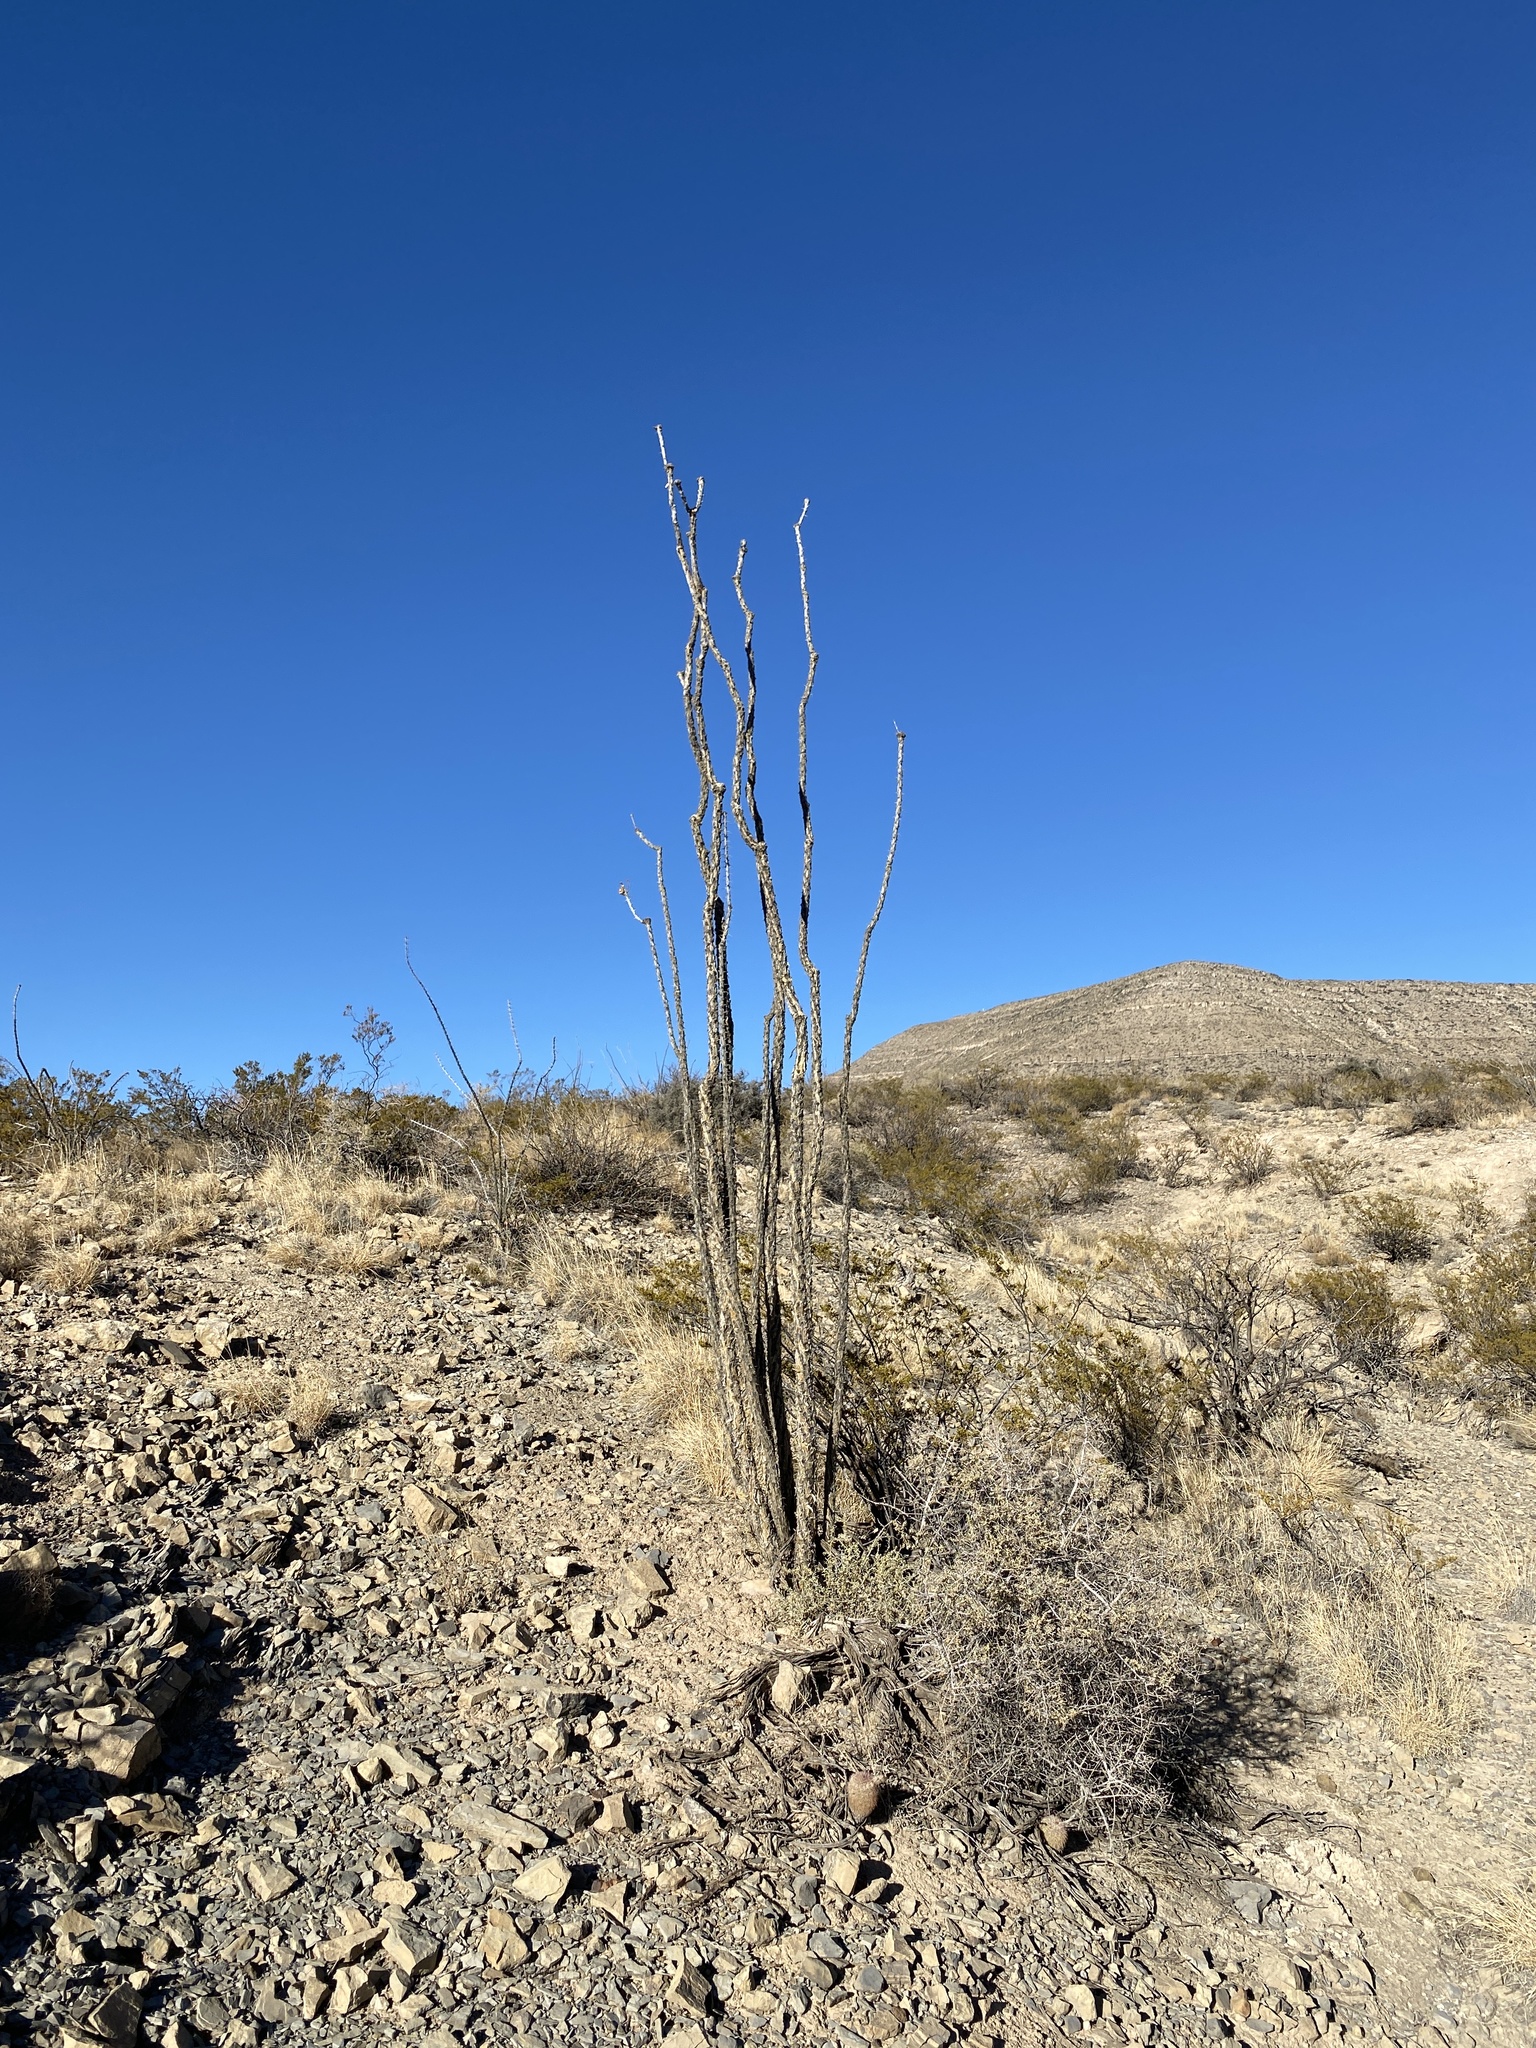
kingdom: Plantae
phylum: Tracheophyta
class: Magnoliopsida
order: Ericales
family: Fouquieriaceae
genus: Fouquieria
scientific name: Fouquieria splendens
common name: Vine-cactus
